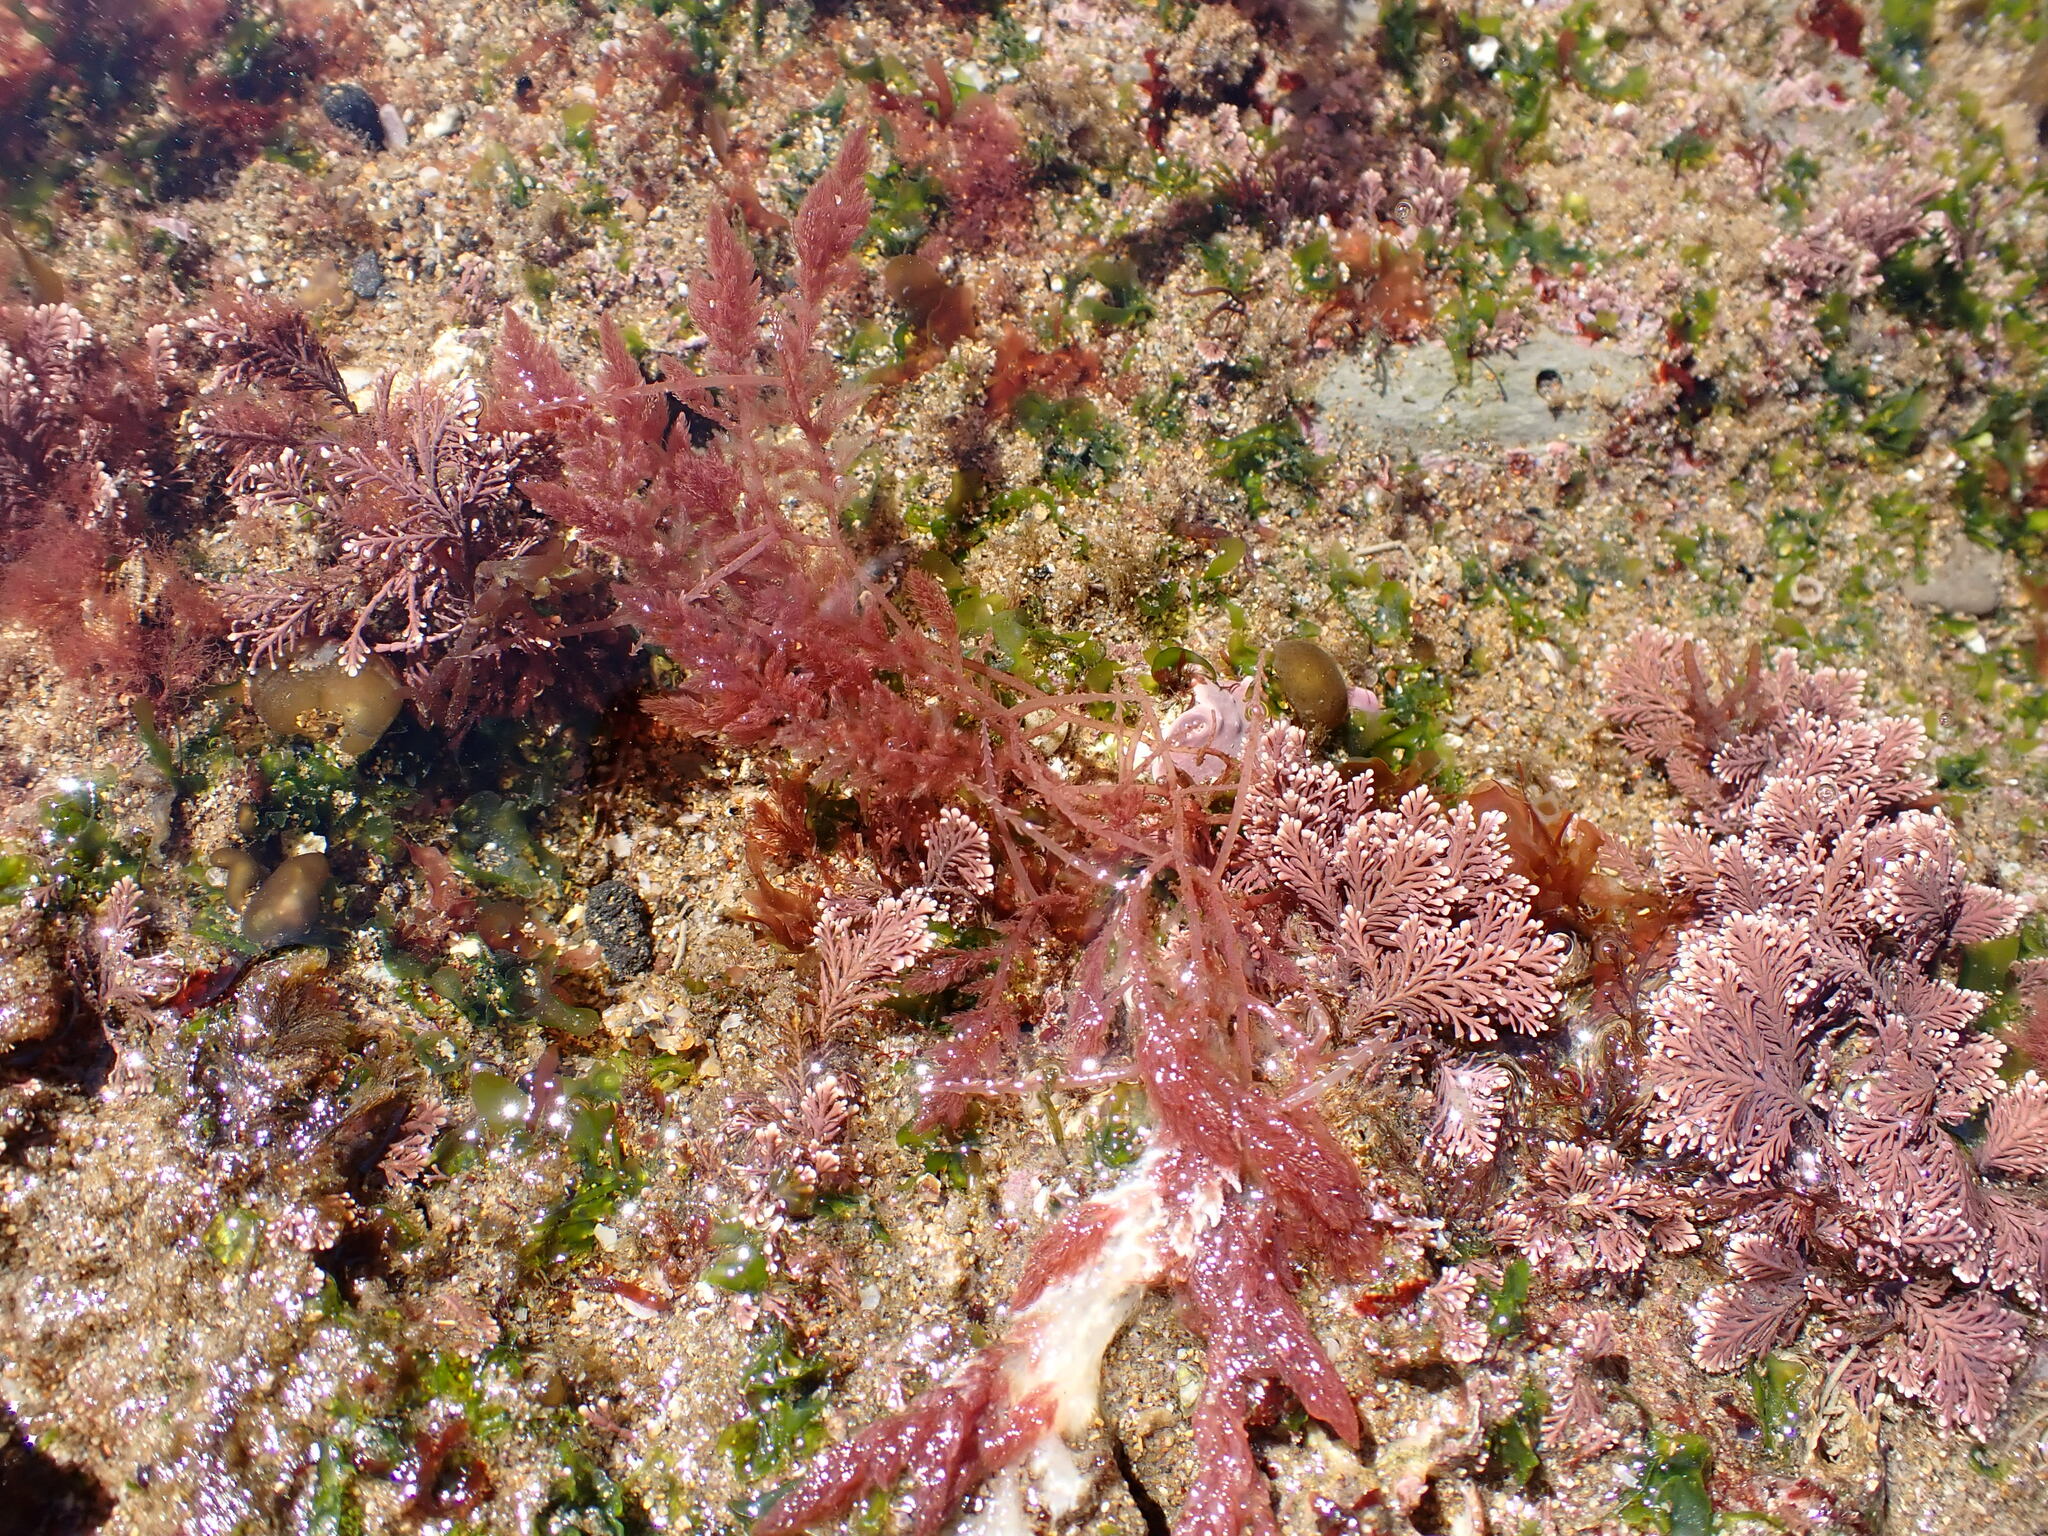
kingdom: Plantae
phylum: Rhodophyta
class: Florideophyceae
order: Bonnemaisoniales
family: Bonnemaisoniaceae
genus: Asparagopsis
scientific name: Asparagopsis armata
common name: Harpoon weed
